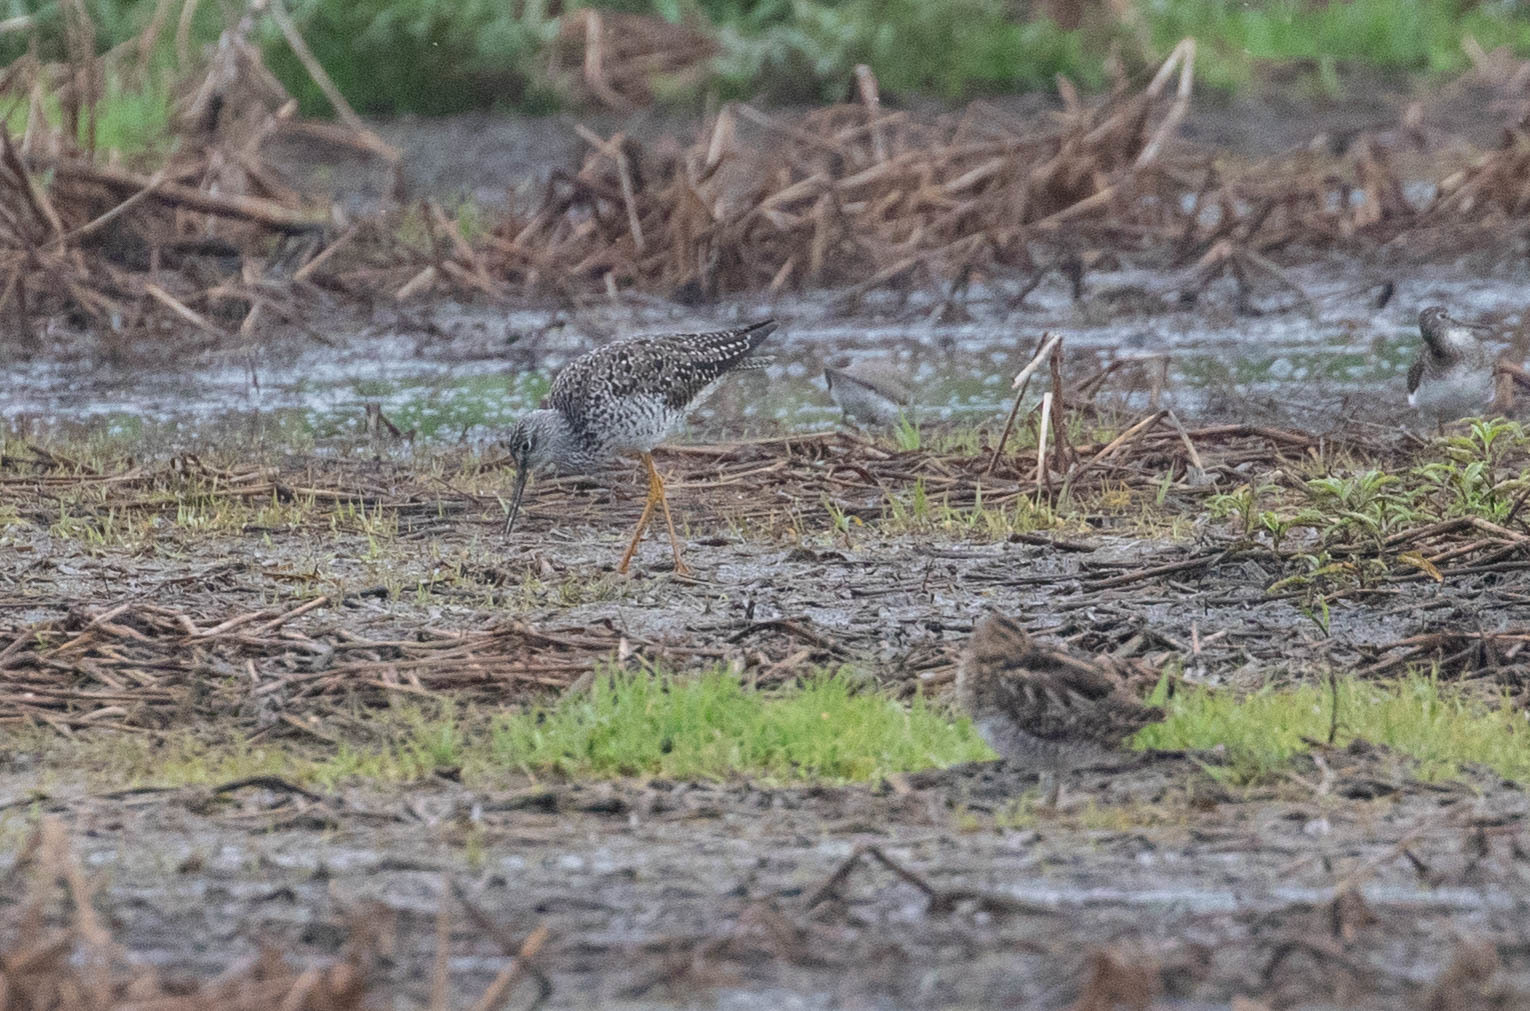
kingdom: Animalia
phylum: Chordata
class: Aves
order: Charadriiformes
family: Scolopacidae
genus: Tringa
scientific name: Tringa melanoleuca
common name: Greater yellowlegs
